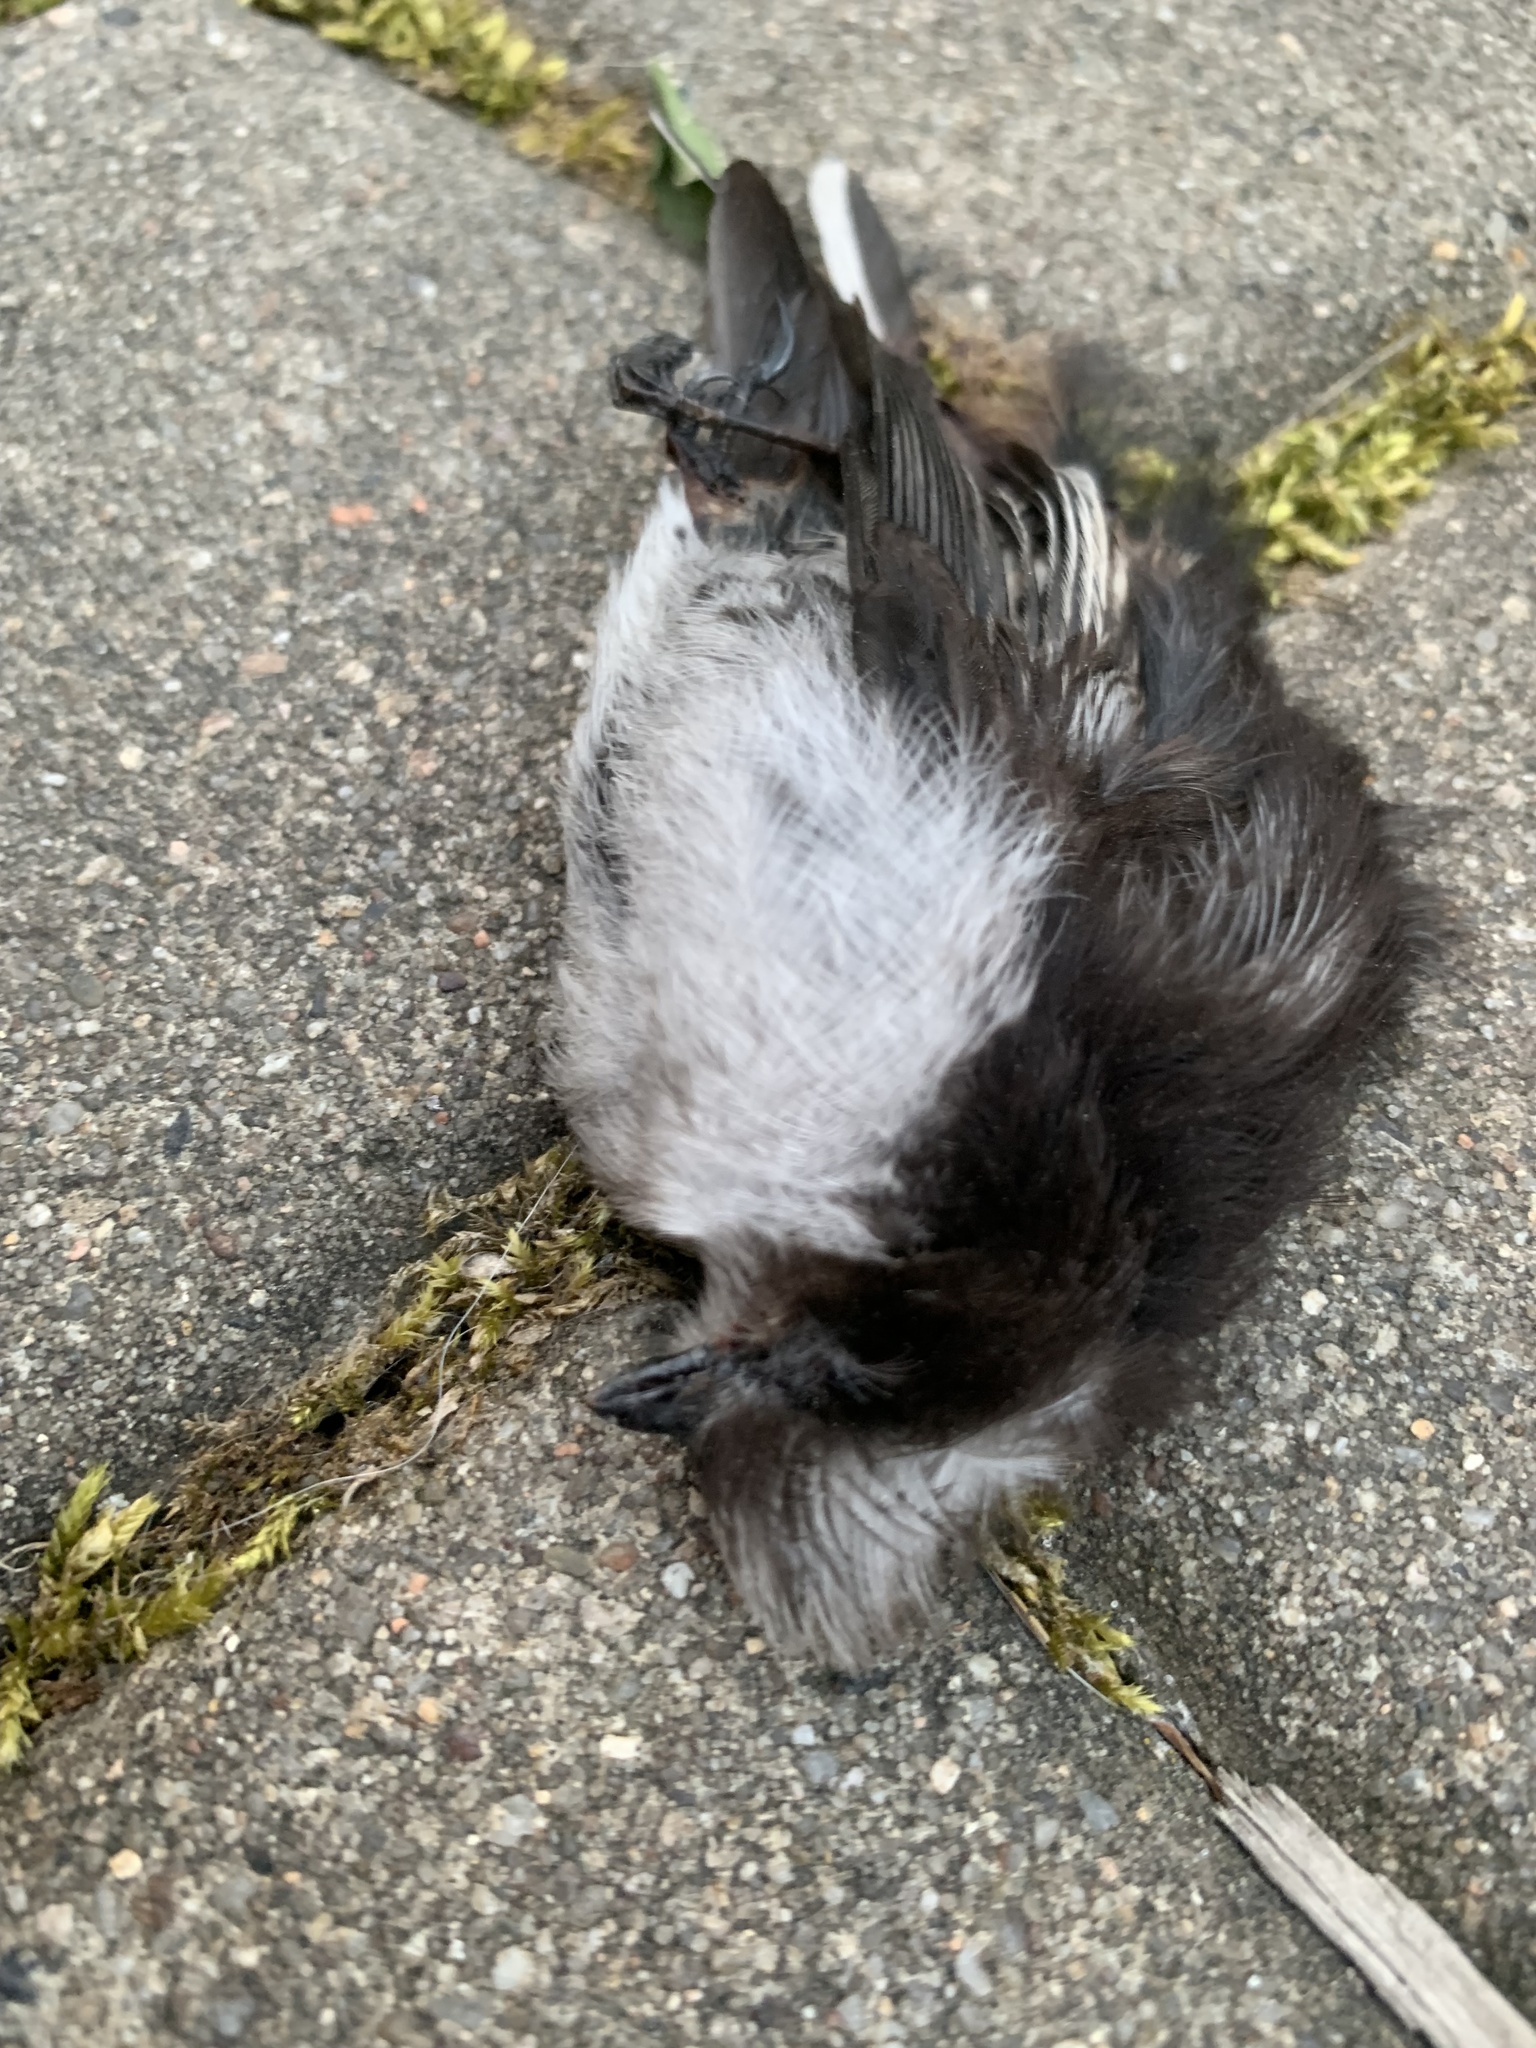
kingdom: Animalia
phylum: Chordata
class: Aves
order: Passeriformes
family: Aegithalidae
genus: Aegithalos
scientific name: Aegithalos caudatus
